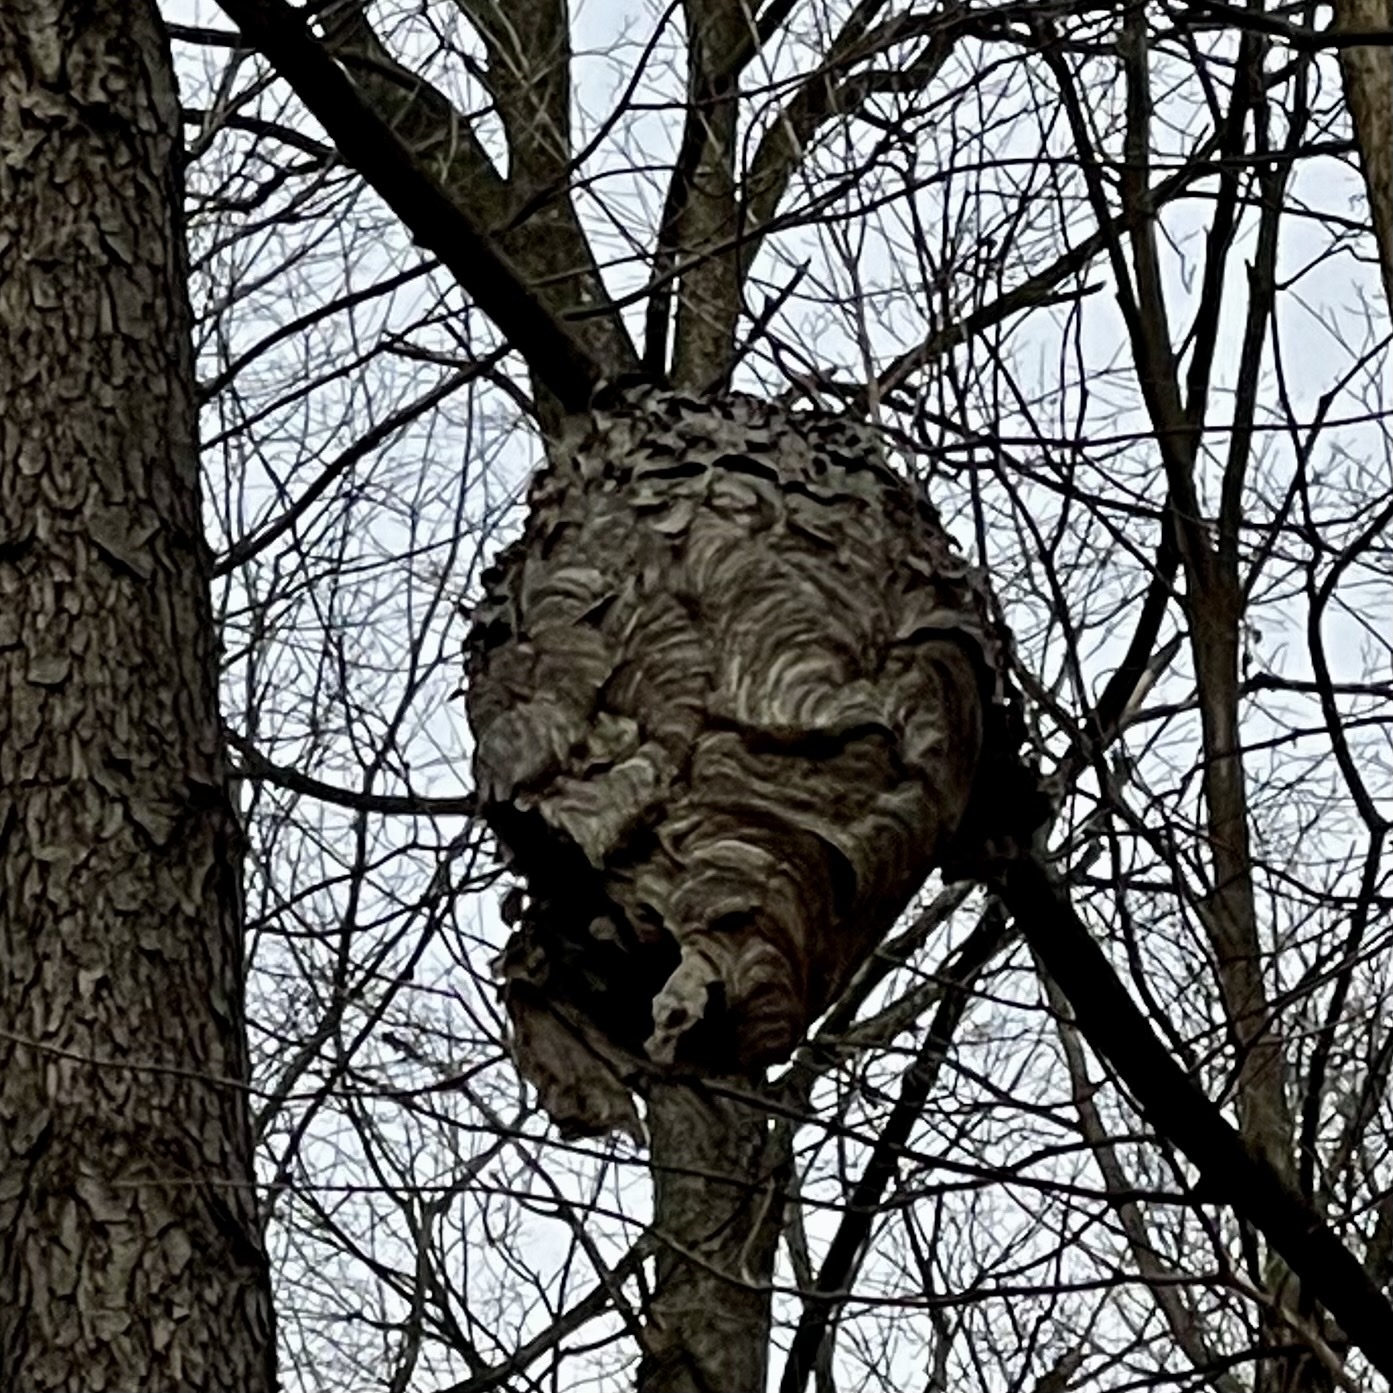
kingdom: Animalia
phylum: Arthropoda
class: Insecta
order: Hymenoptera
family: Vespidae
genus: Dolichovespula
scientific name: Dolichovespula maculata
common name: Bald-faced hornet
